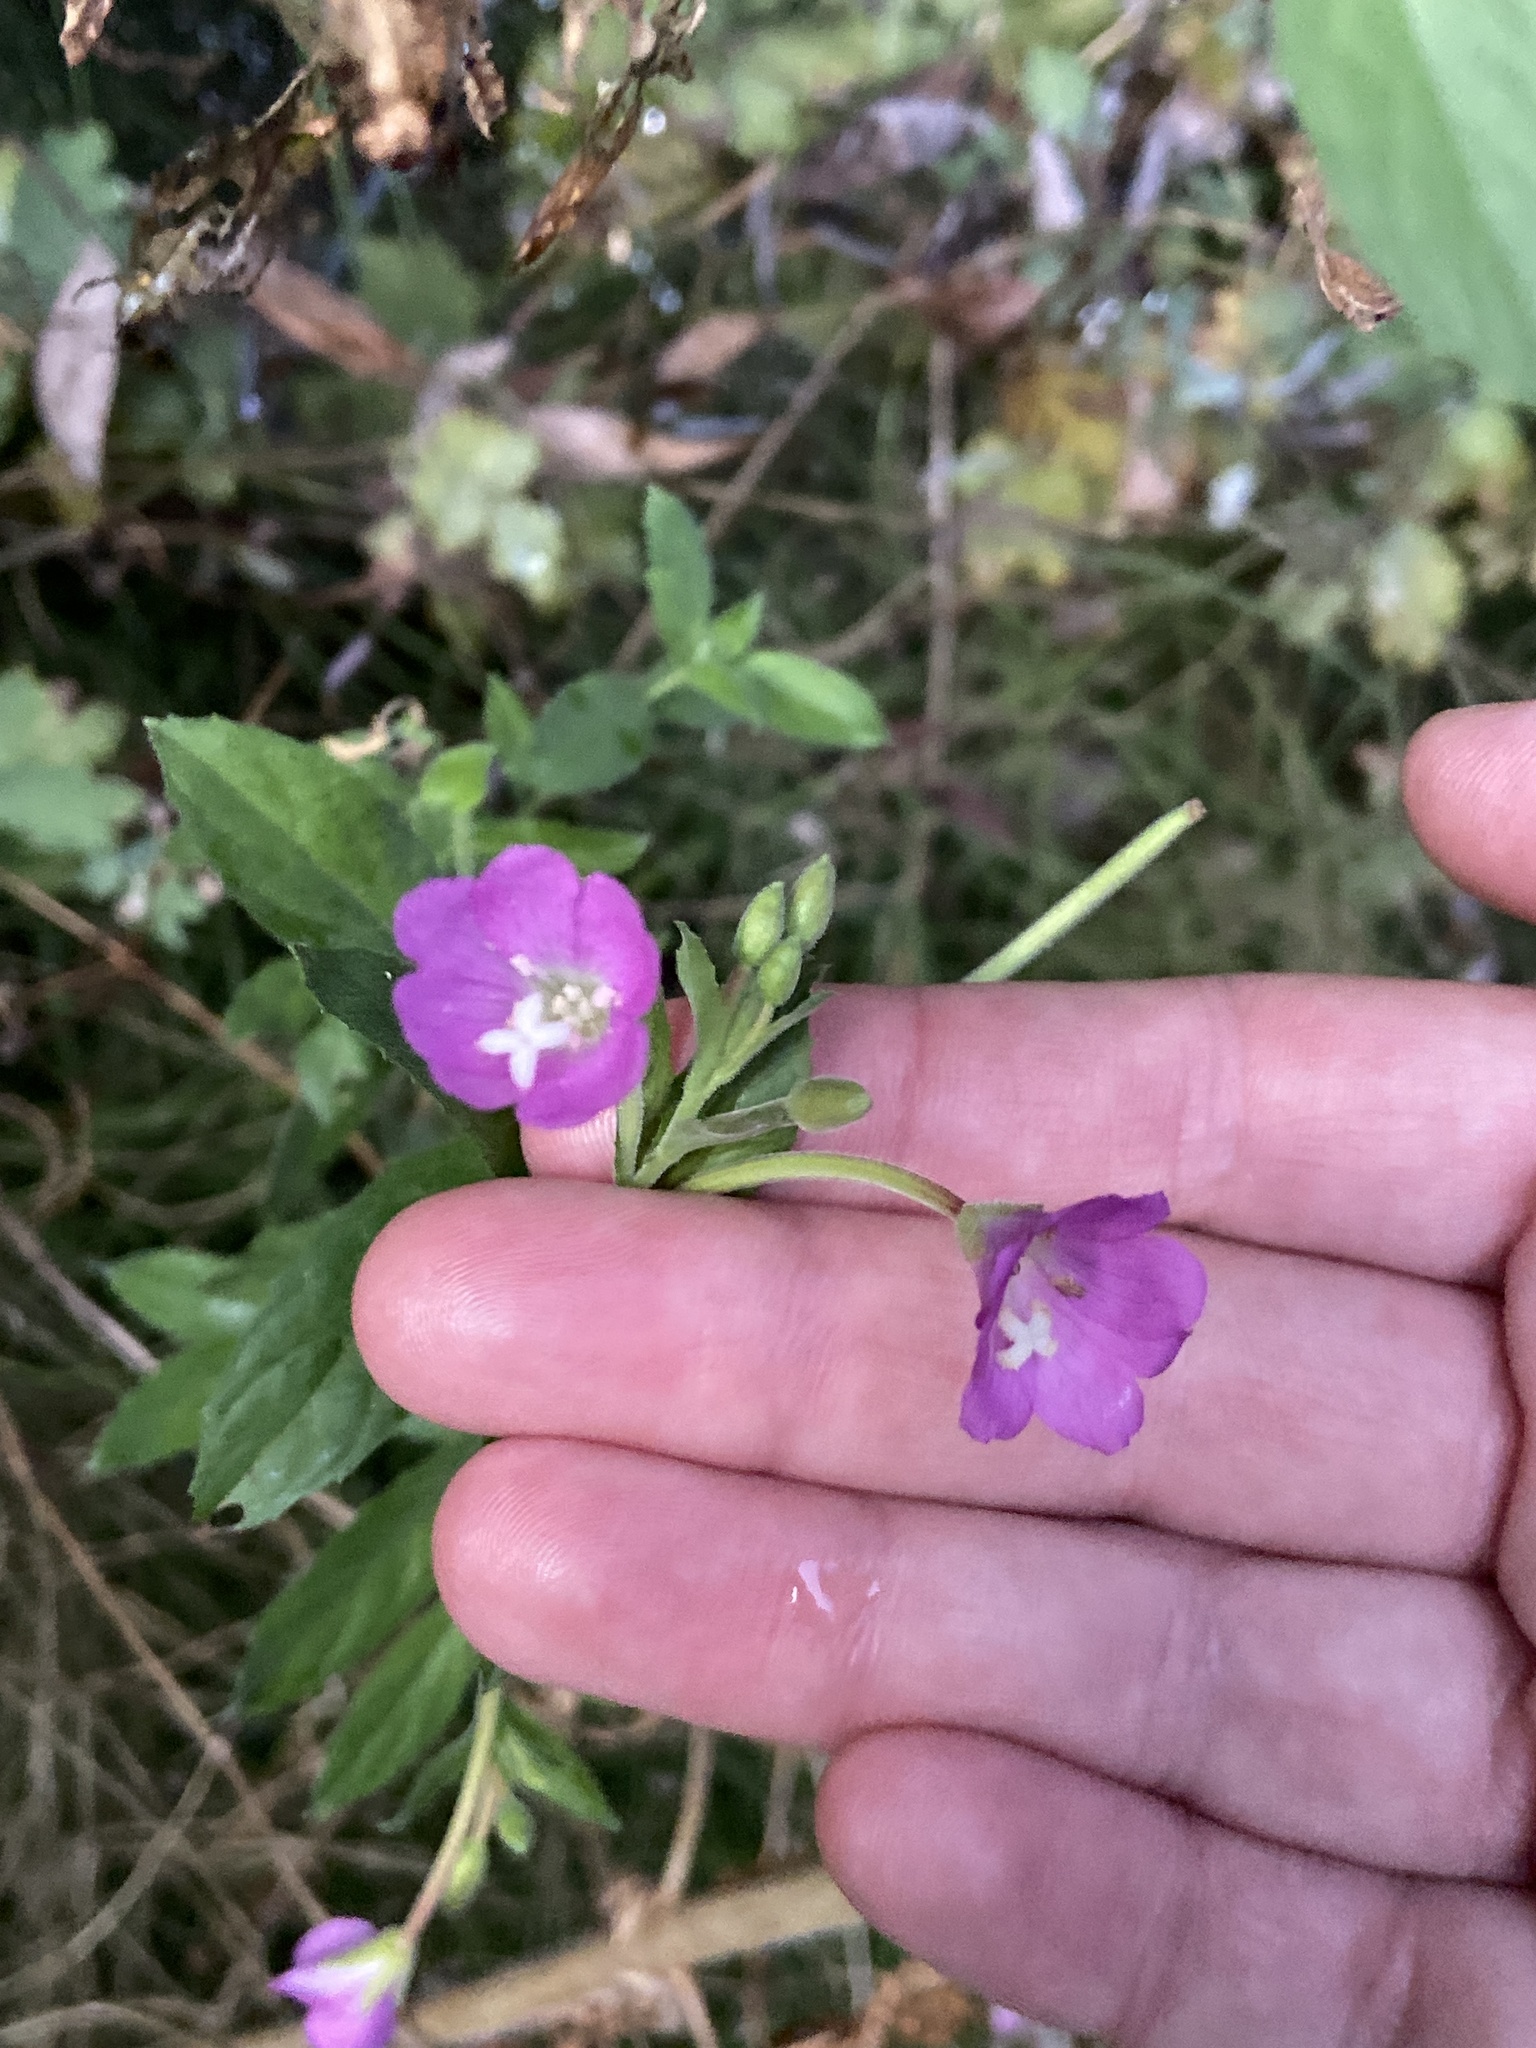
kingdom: Plantae
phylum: Tracheophyta
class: Magnoliopsida
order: Myrtales
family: Onagraceae
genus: Epilobium
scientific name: Epilobium hirsutum
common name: Great willowherb
